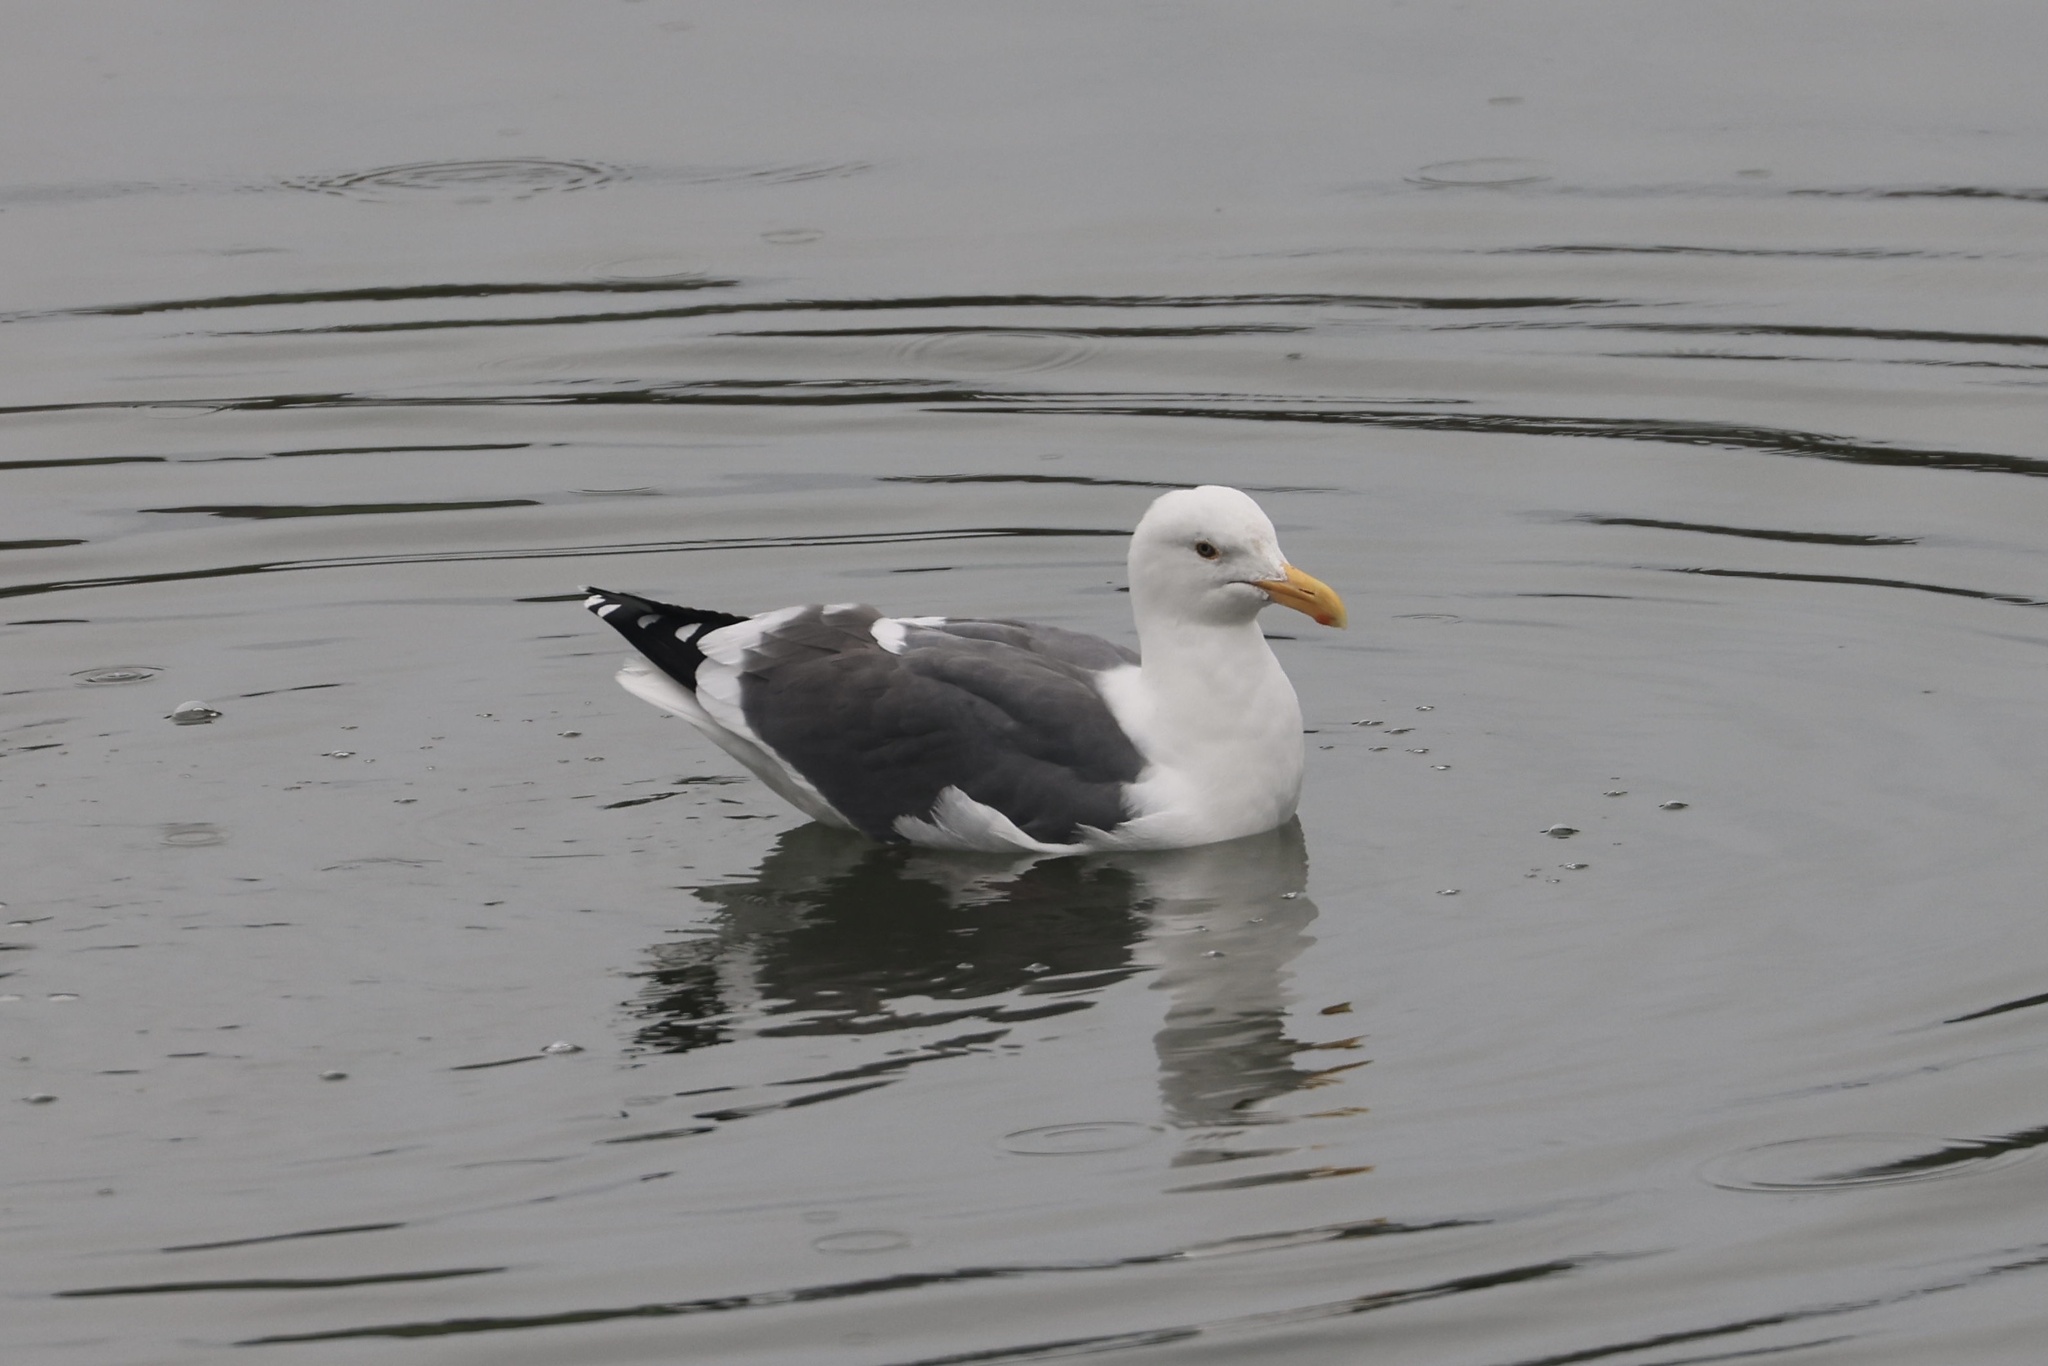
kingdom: Animalia
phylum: Chordata
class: Aves
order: Charadriiformes
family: Laridae
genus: Larus
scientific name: Larus occidentalis
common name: Western gull
